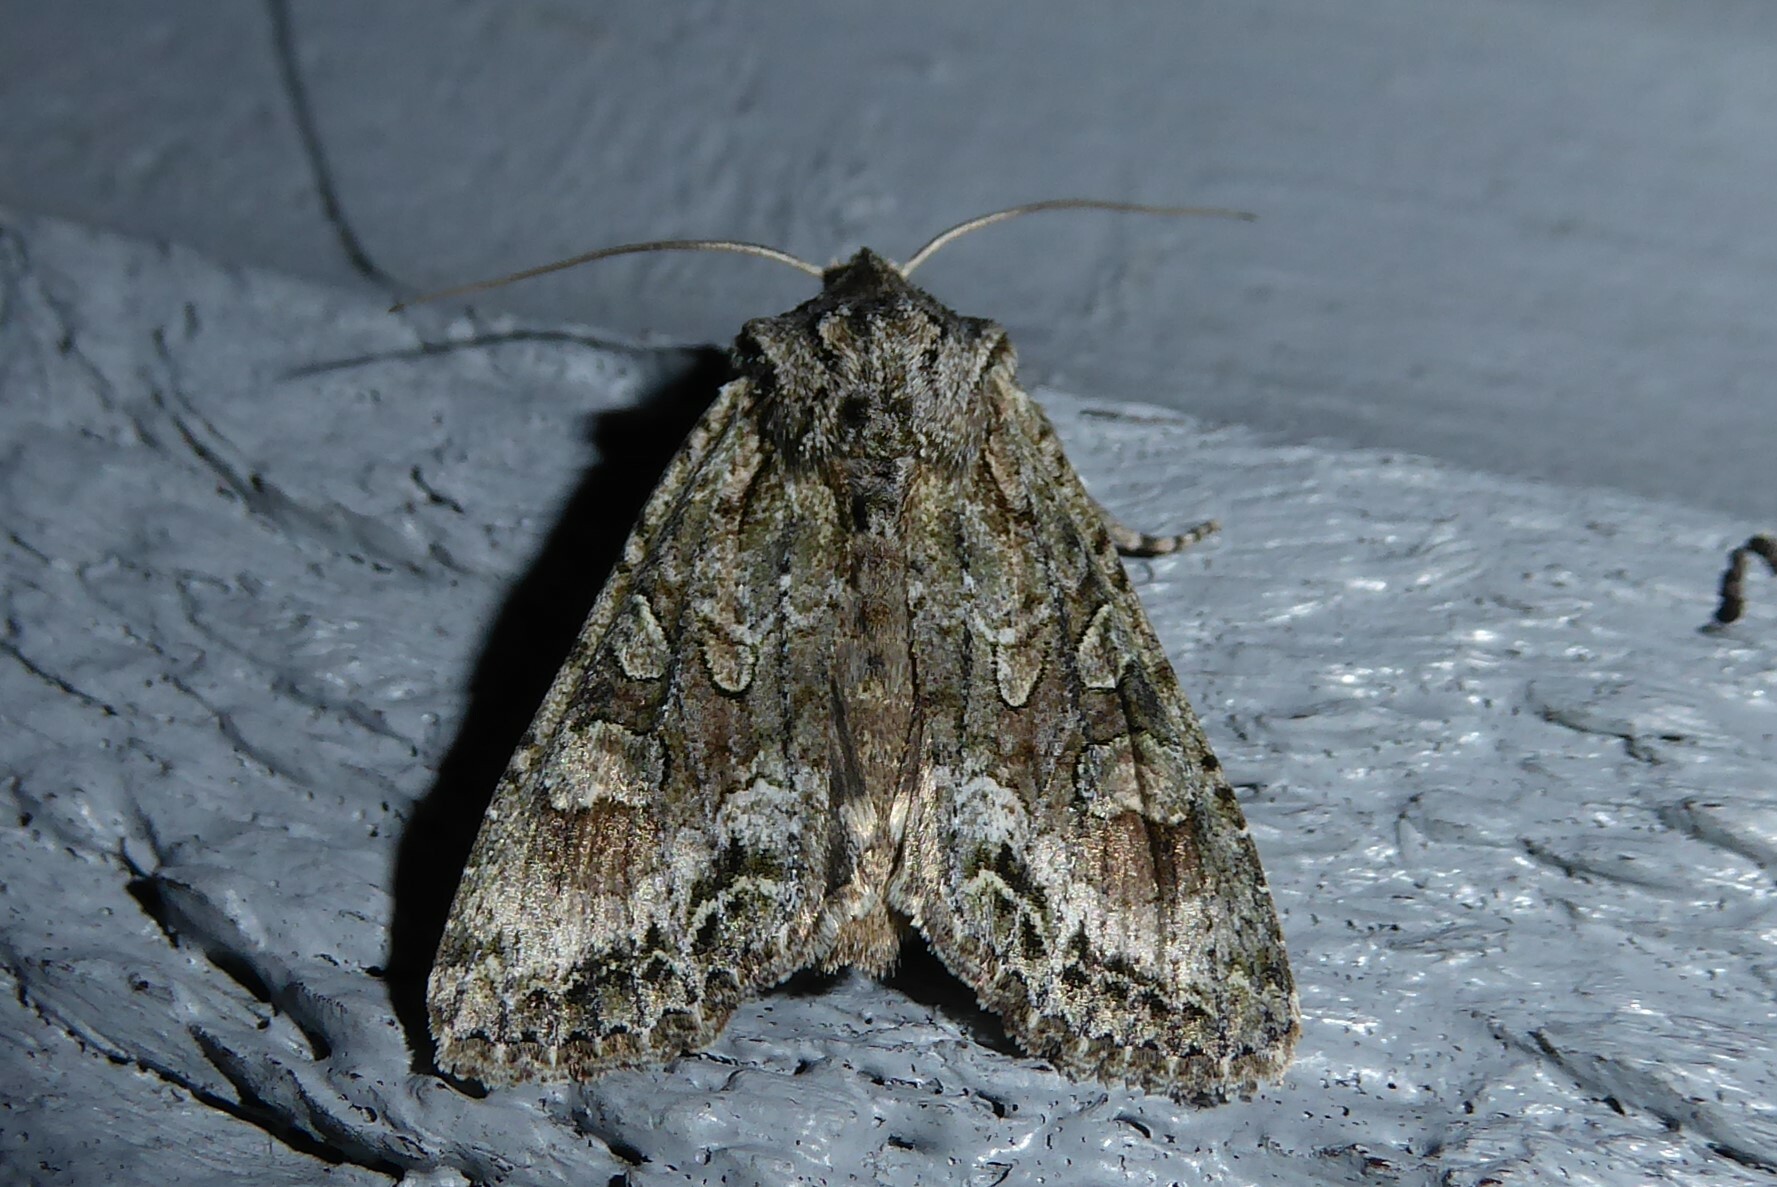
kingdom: Animalia
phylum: Arthropoda
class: Insecta
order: Lepidoptera
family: Noctuidae
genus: Ichneutica
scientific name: Ichneutica mutans
